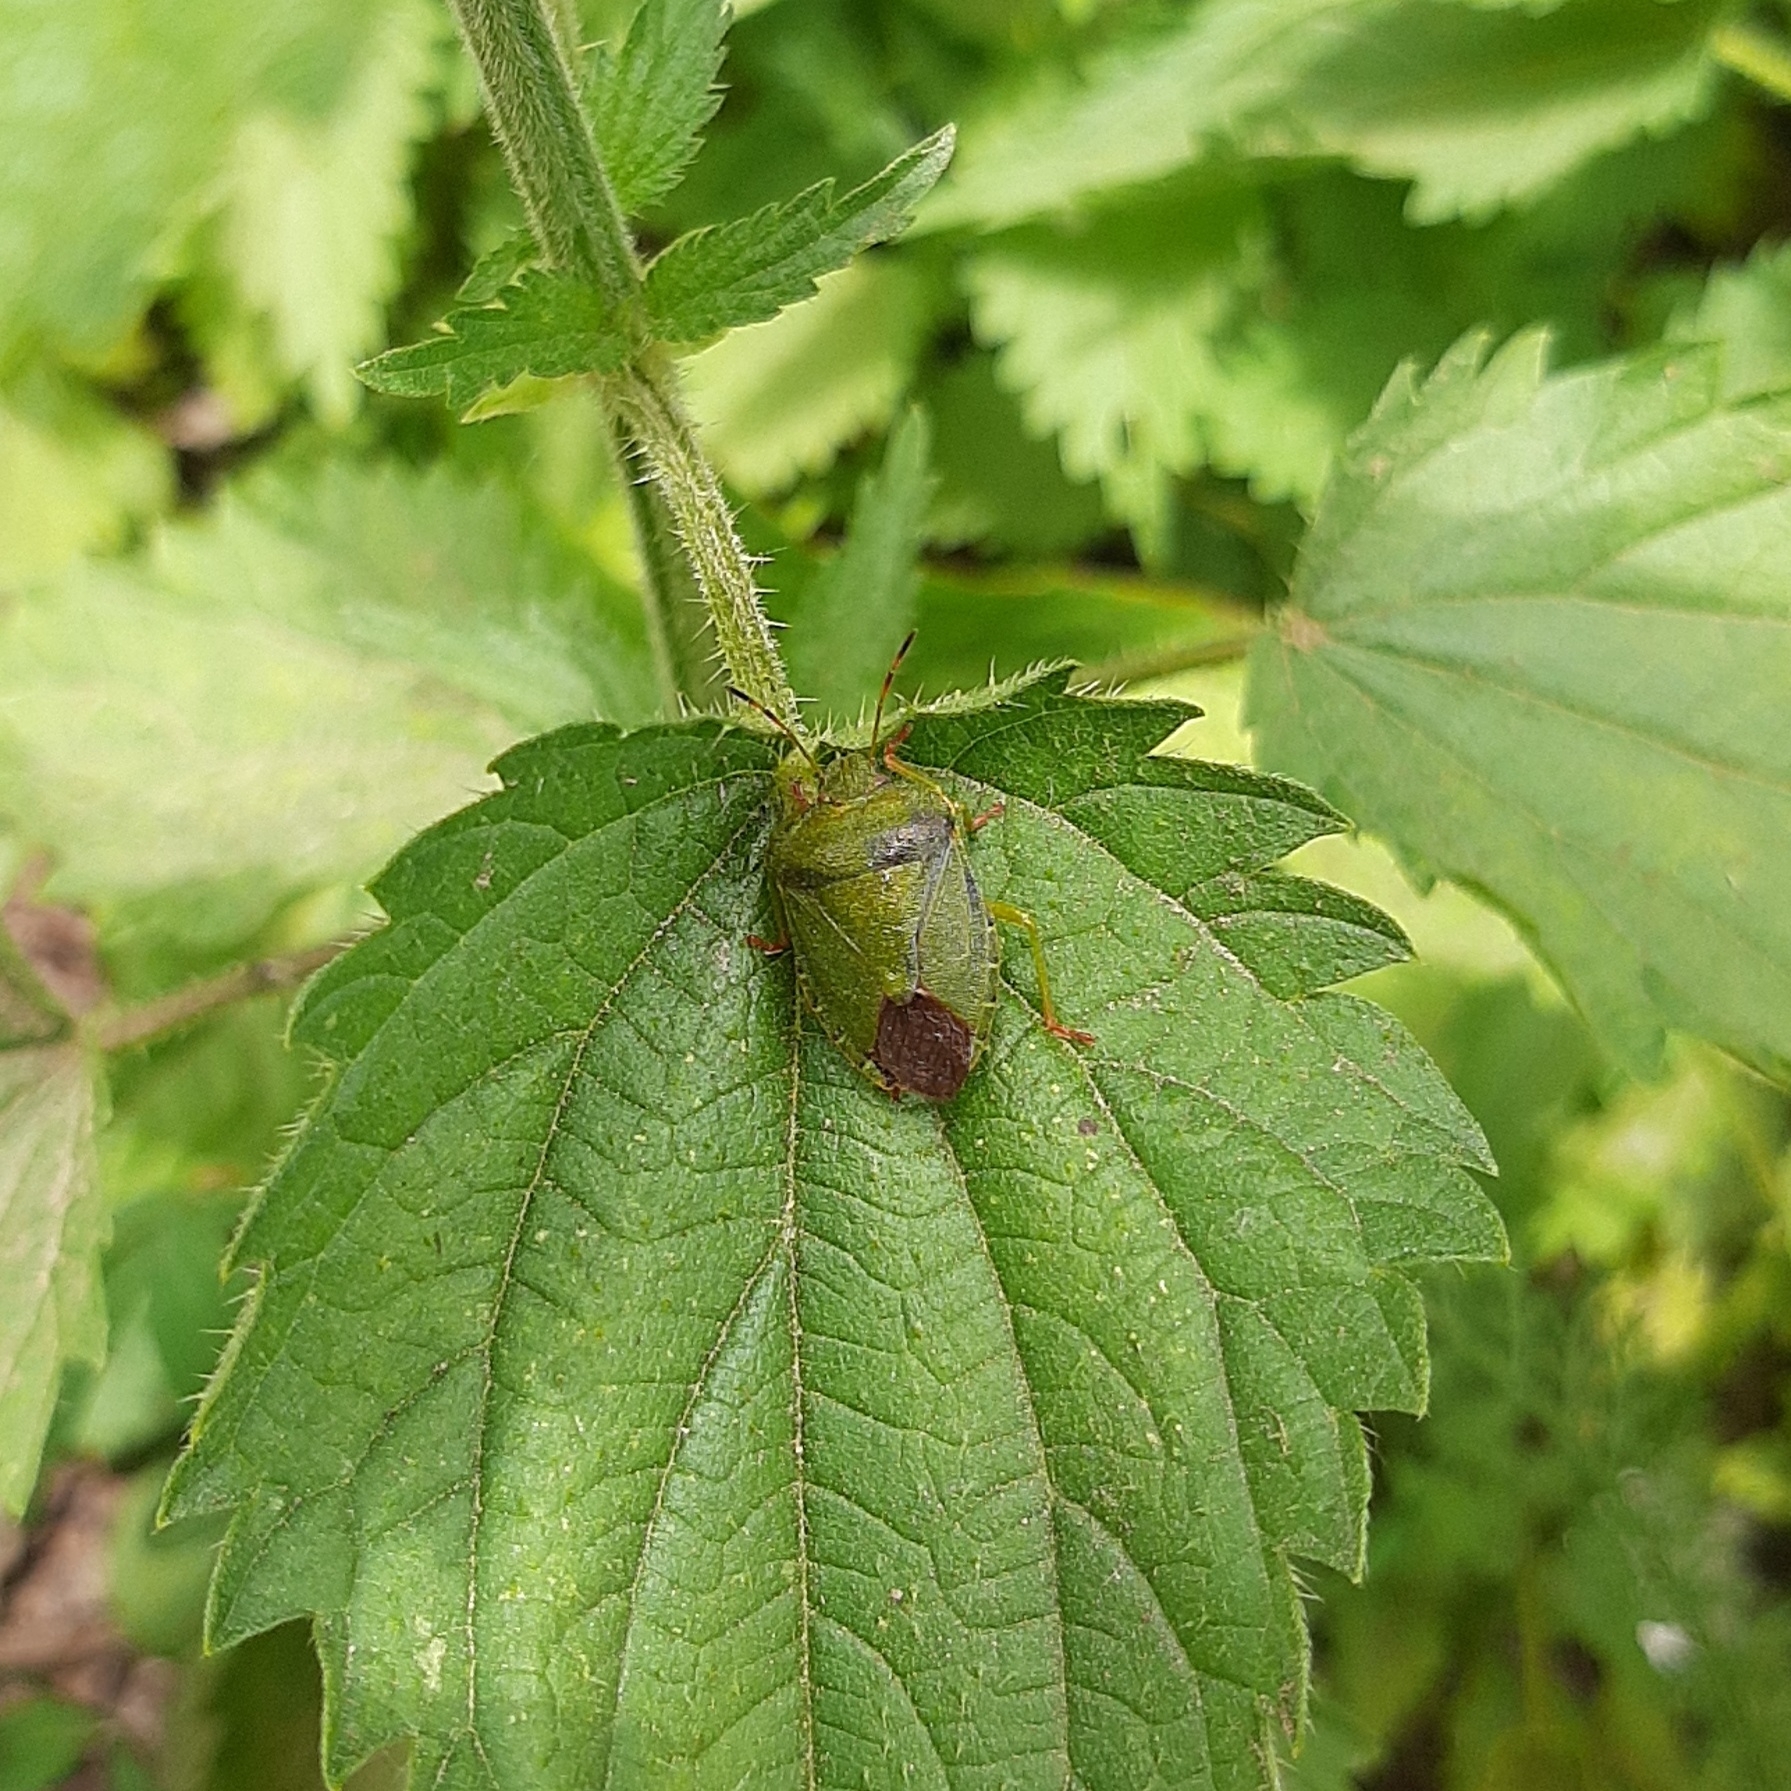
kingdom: Animalia
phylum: Arthropoda
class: Insecta
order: Hemiptera
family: Pentatomidae
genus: Palomena
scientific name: Palomena prasina
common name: Green shieldbug
